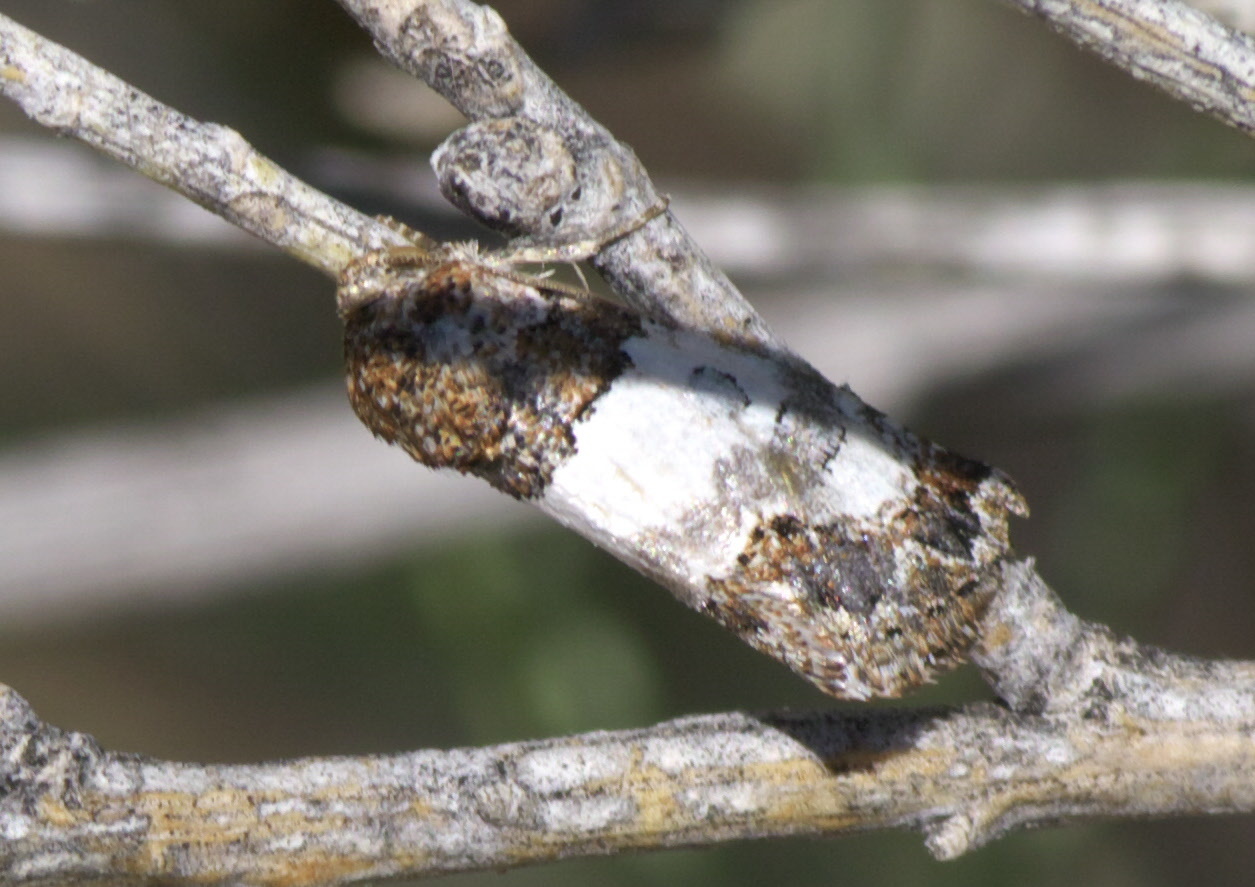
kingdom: Animalia
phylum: Arthropoda
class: Insecta
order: Lepidoptera
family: Noctuidae
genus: Schinia
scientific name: Schinia albafascia
